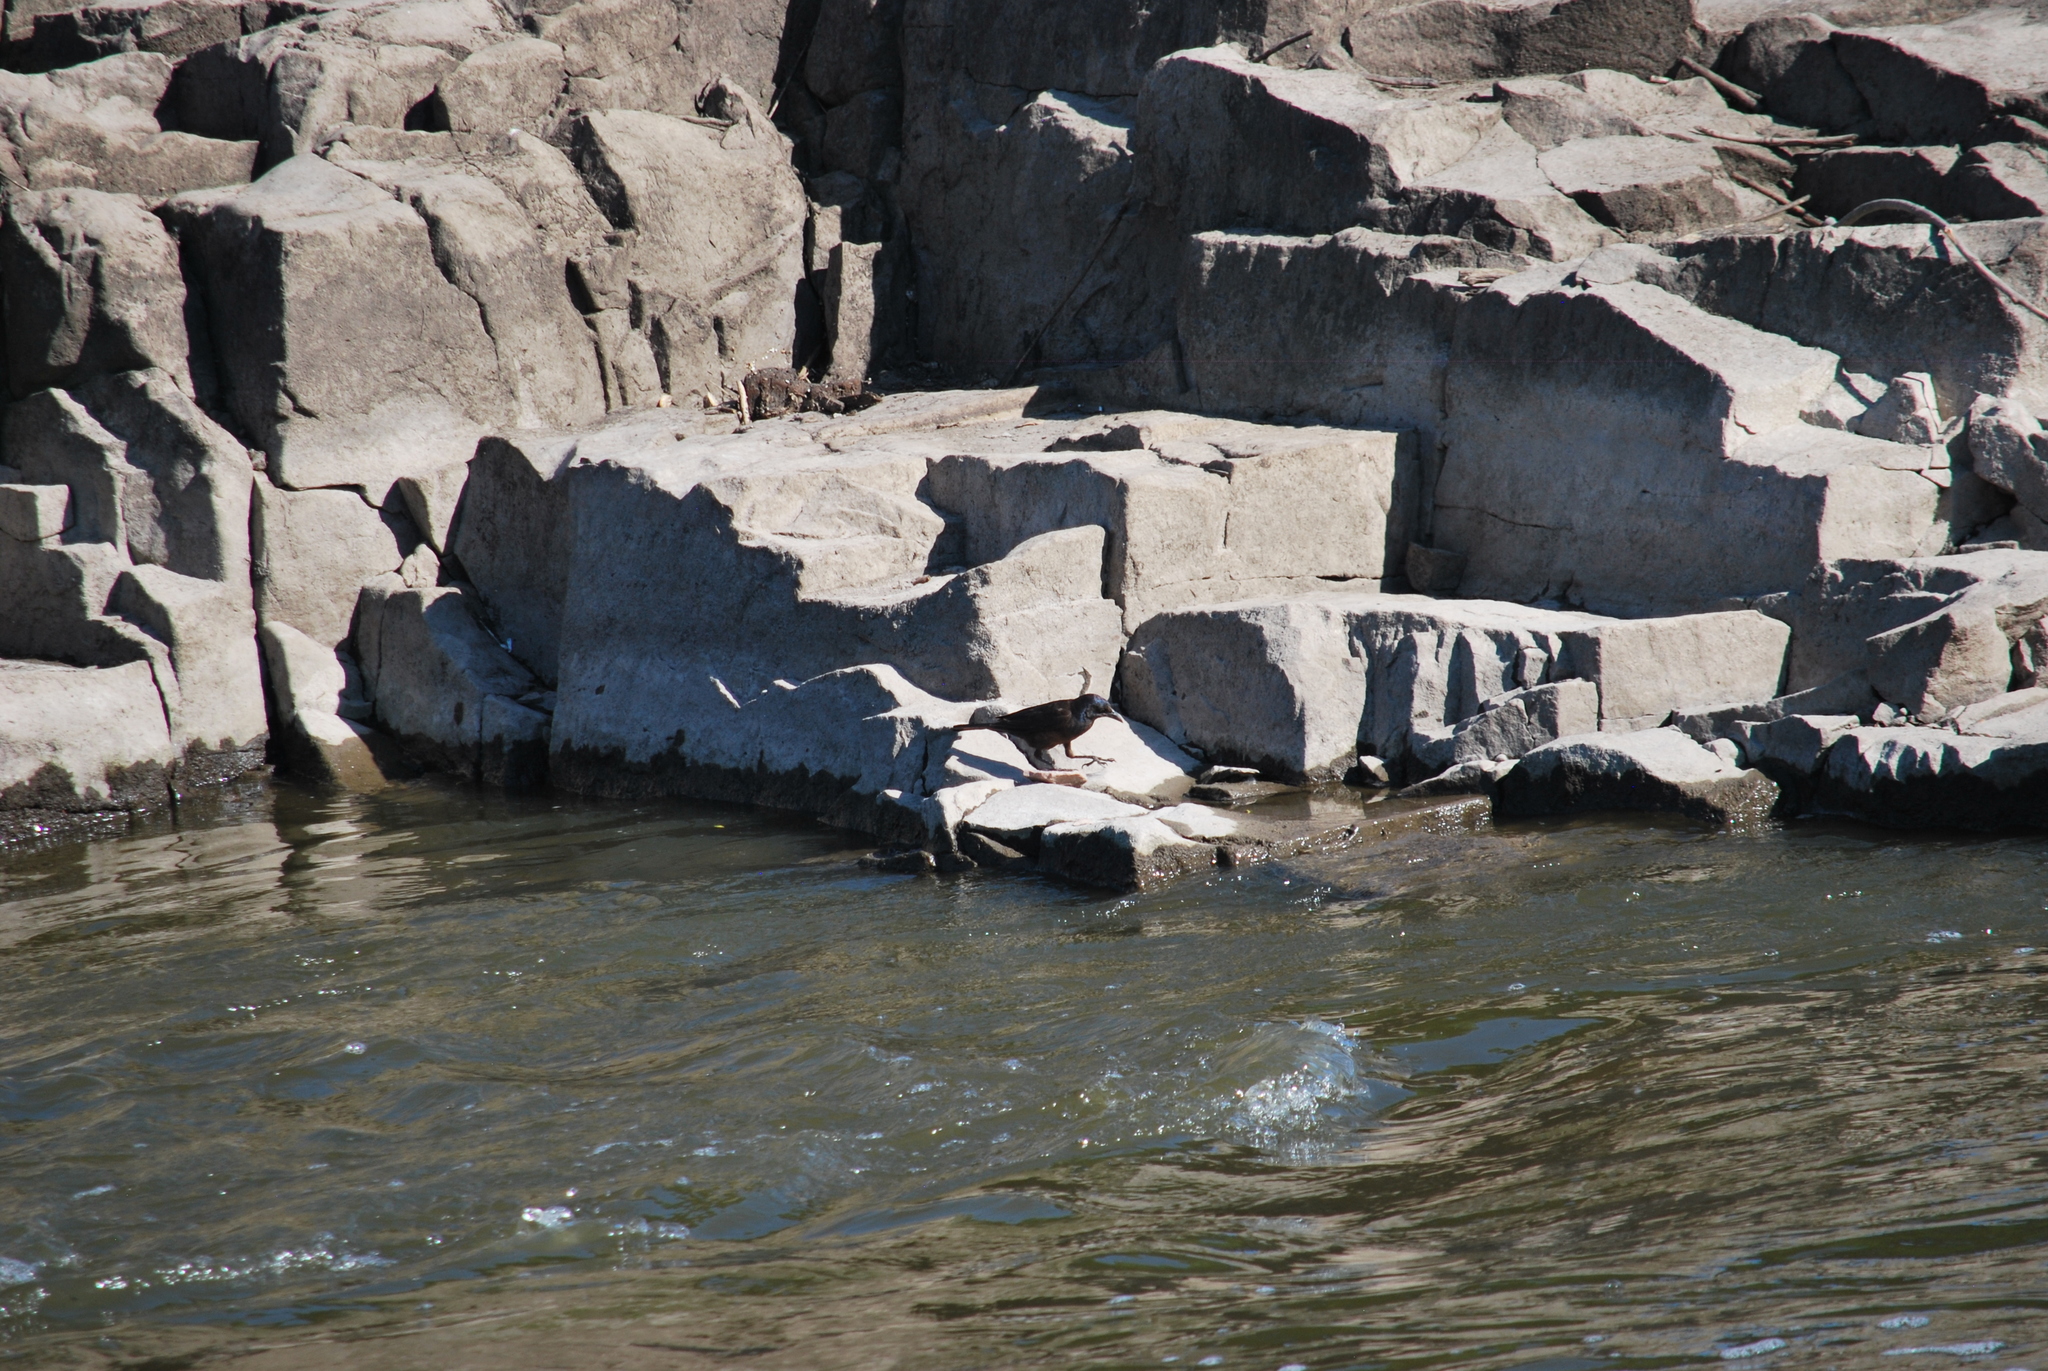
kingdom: Animalia
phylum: Chordata
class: Aves
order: Passeriformes
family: Icteridae
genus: Quiscalus
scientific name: Quiscalus quiscula
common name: Common grackle
